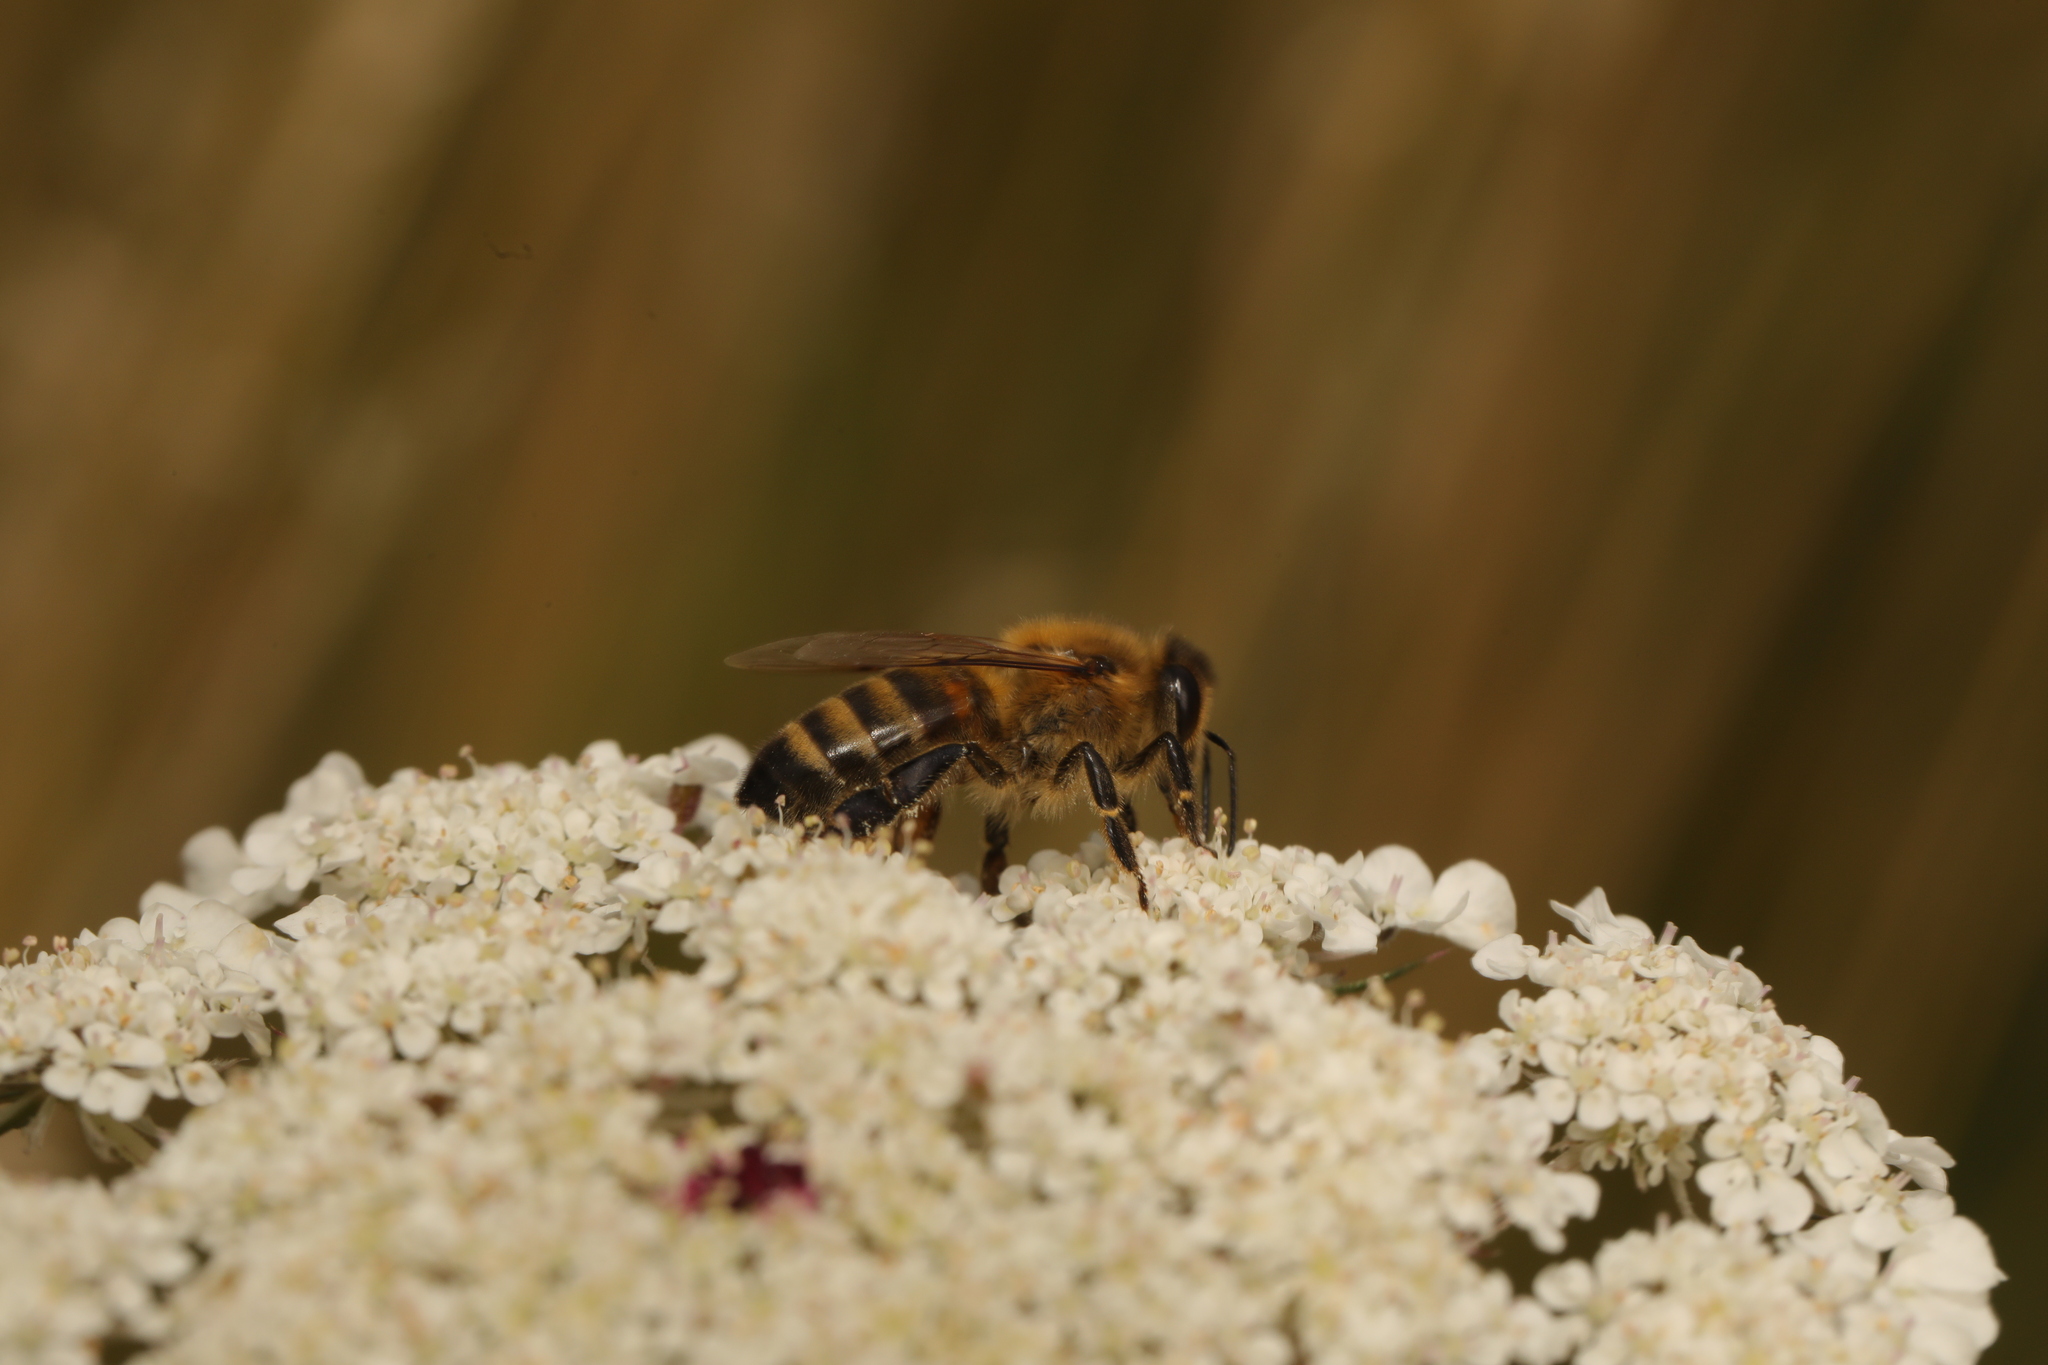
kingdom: Animalia
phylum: Arthropoda
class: Insecta
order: Hymenoptera
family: Apidae
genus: Apis
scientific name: Apis mellifera
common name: Honey bee
